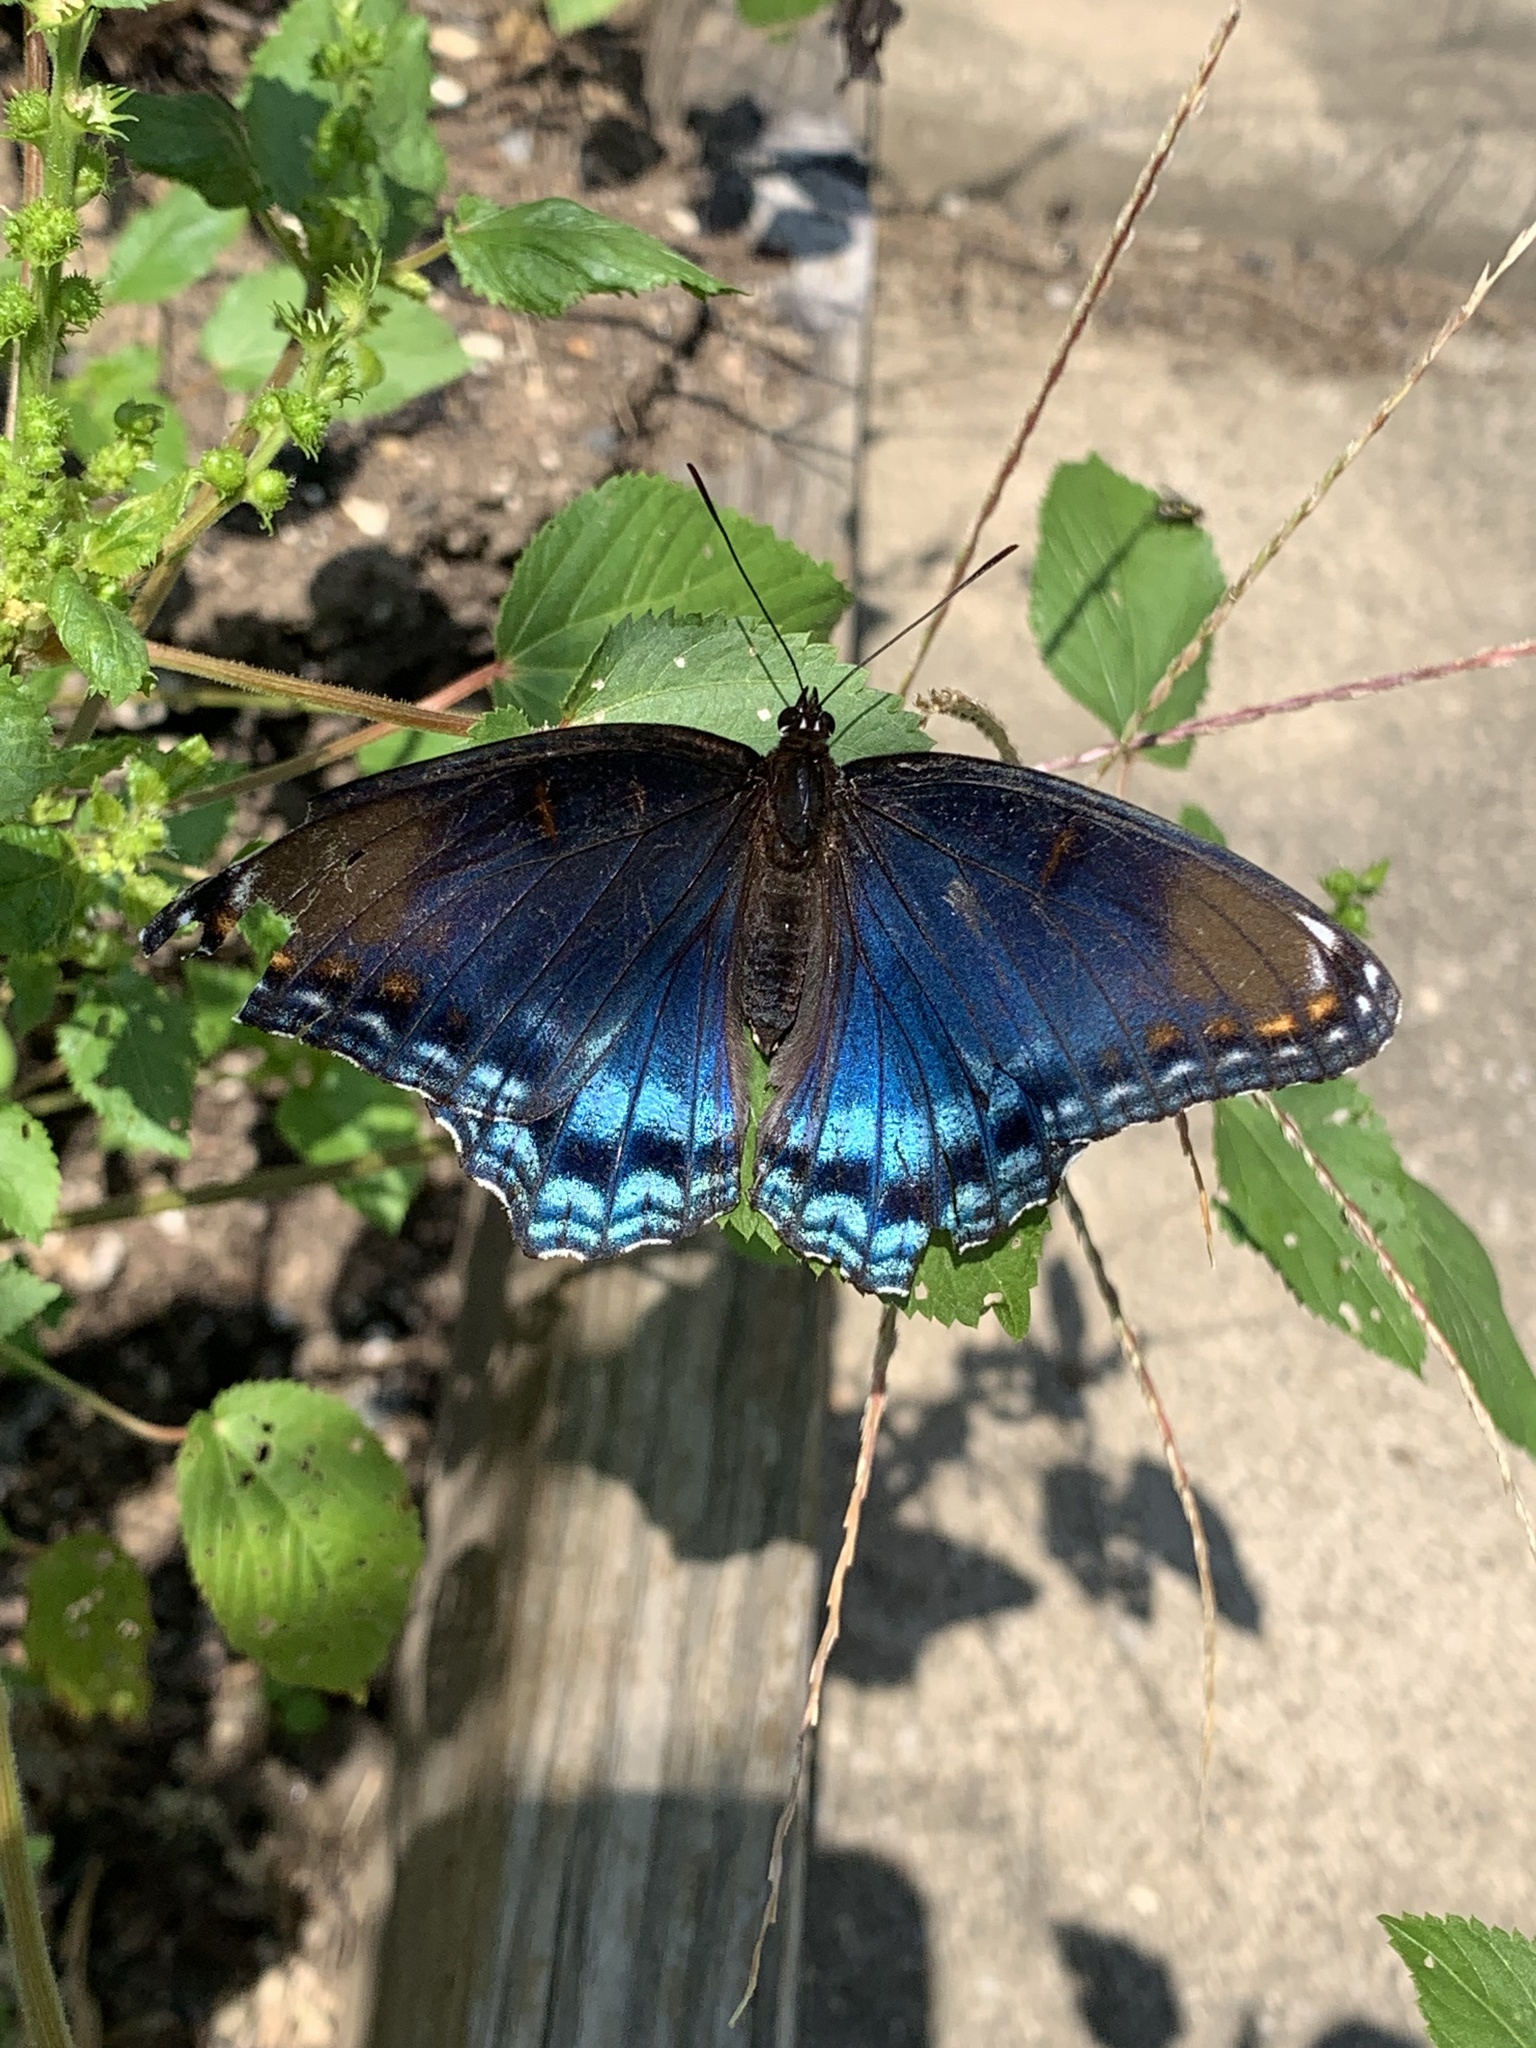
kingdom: Animalia
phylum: Arthropoda
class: Insecta
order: Lepidoptera
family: Nymphalidae
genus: Limenitis
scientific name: Limenitis astyanax
